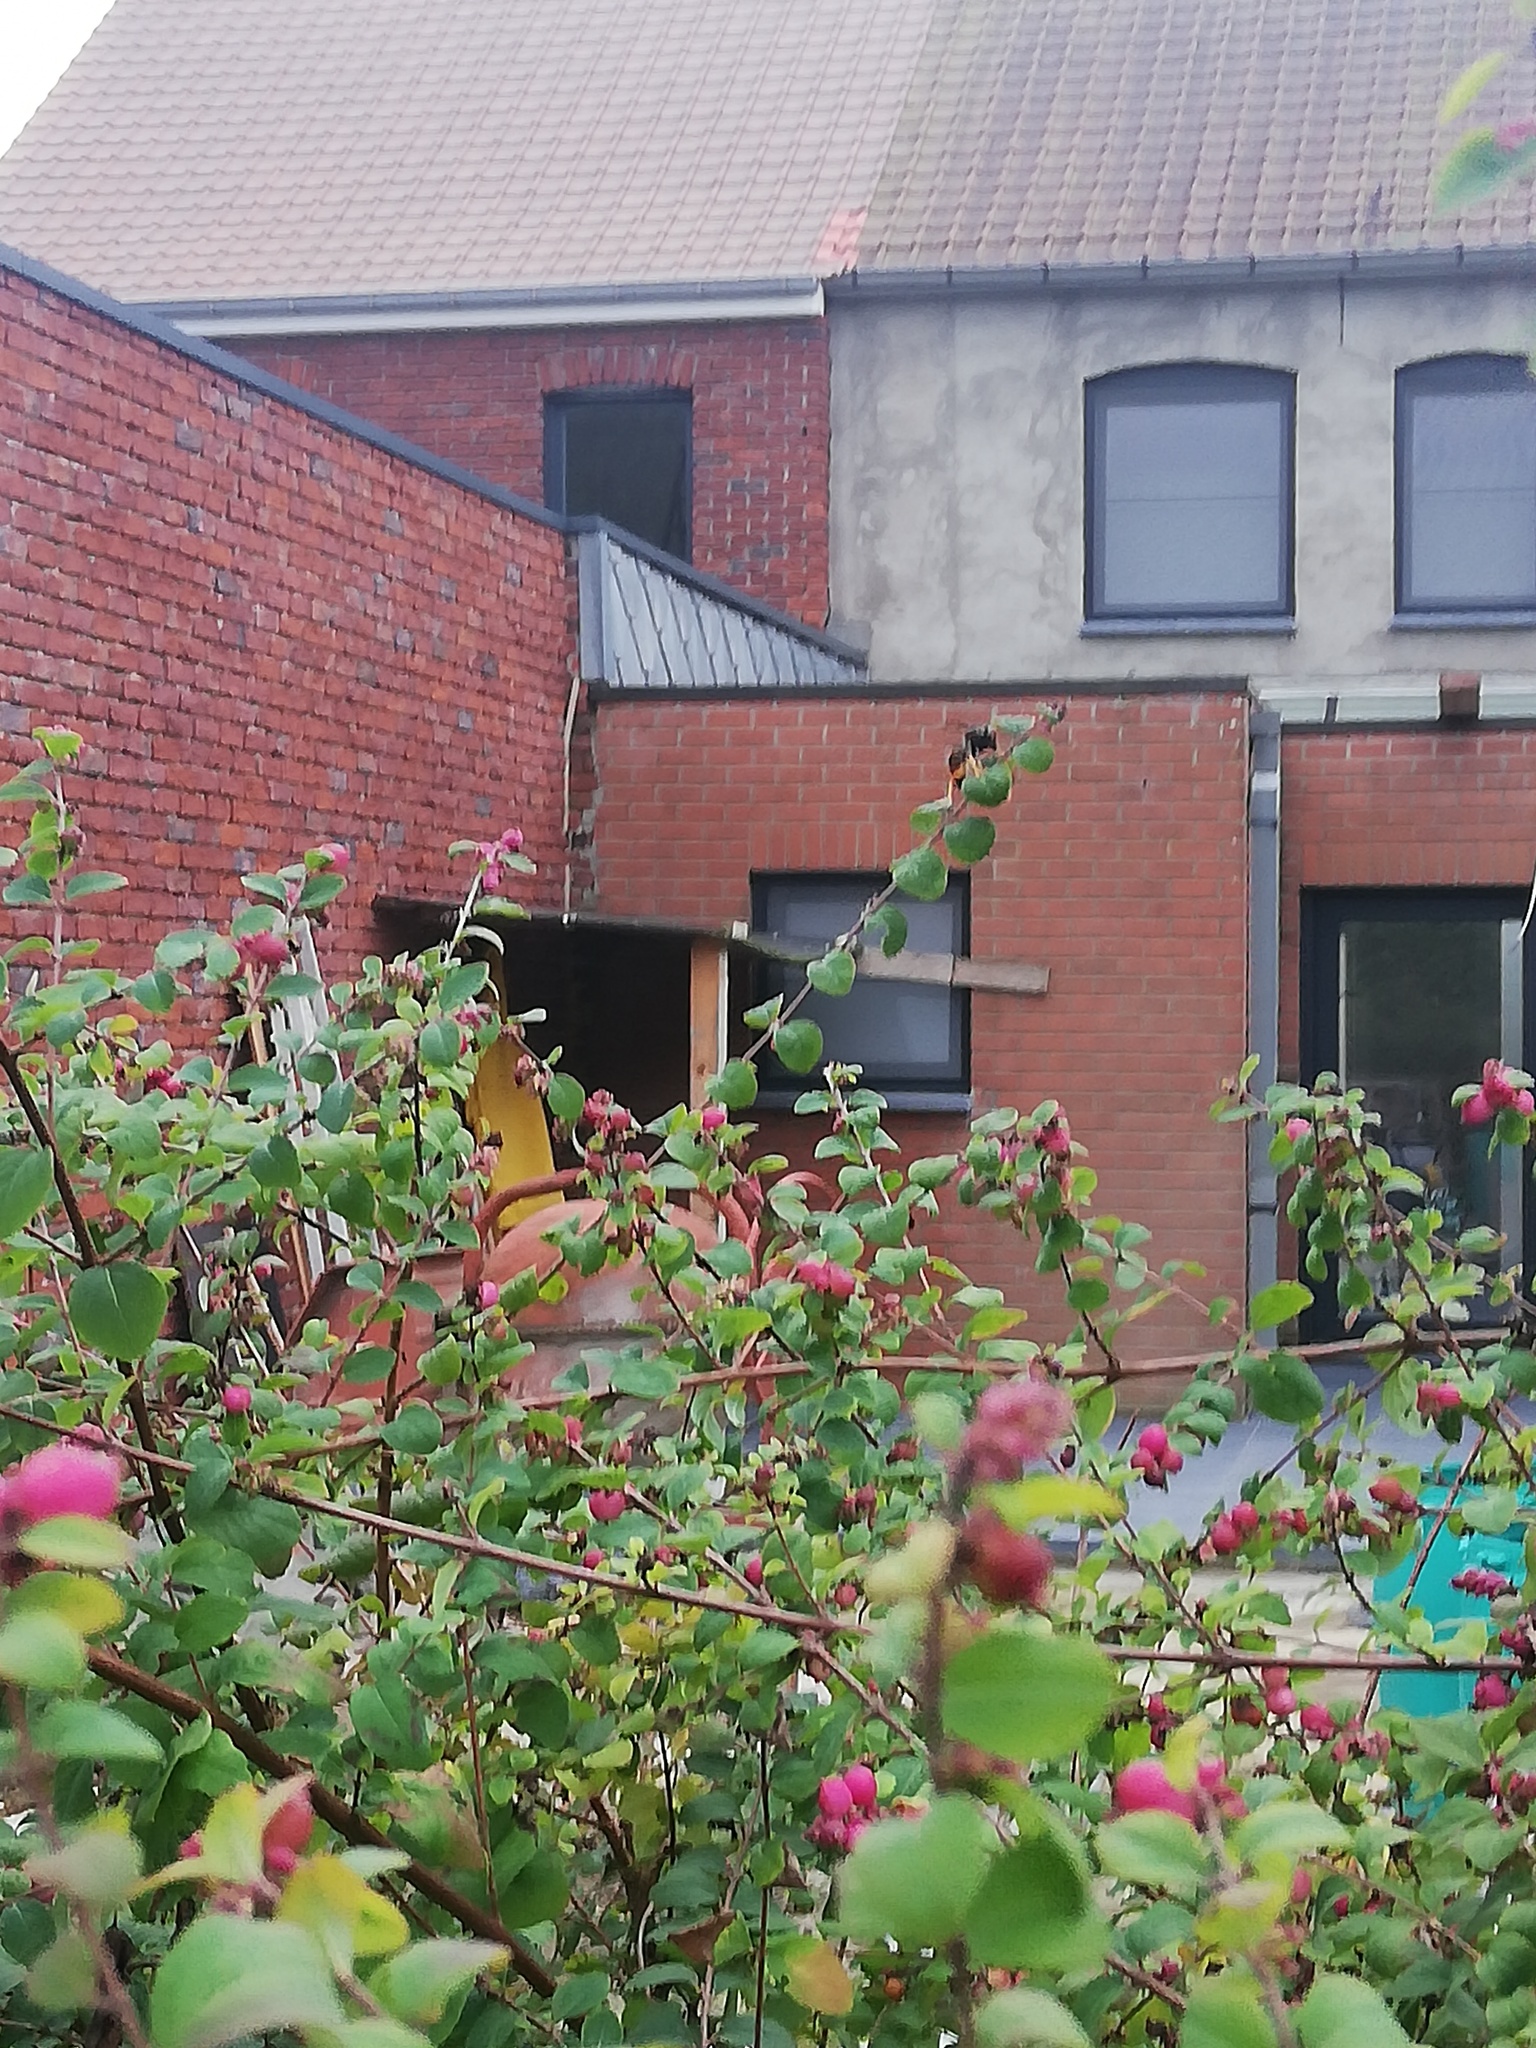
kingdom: Animalia
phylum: Arthropoda
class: Insecta
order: Hymenoptera
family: Vespidae
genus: Vespa
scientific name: Vespa velutina
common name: Asian hornet
